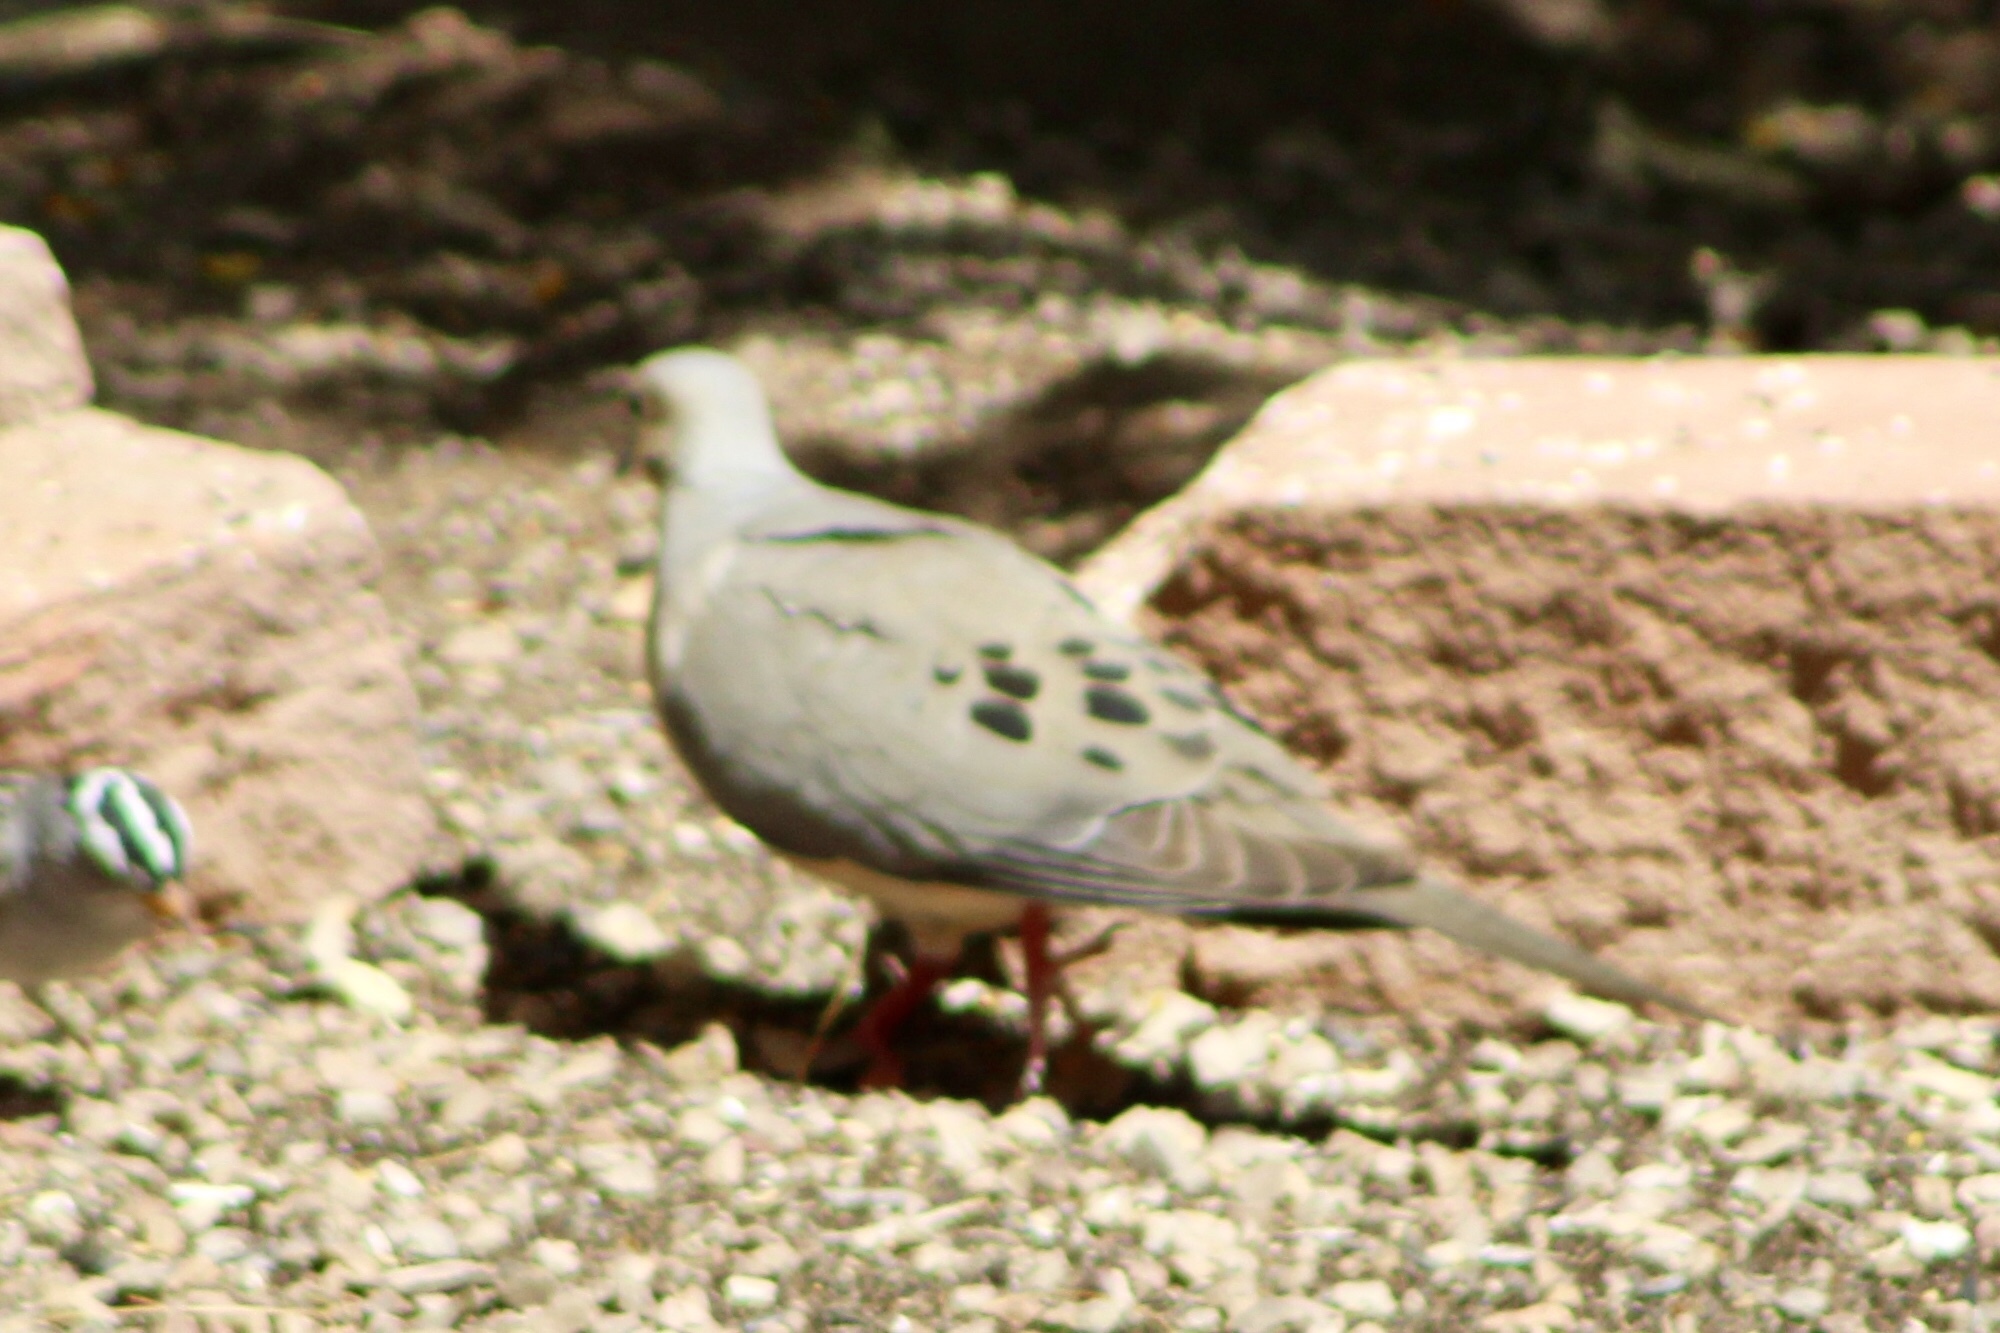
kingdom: Animalia
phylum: Chordata
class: Aves
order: Columbiformes
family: Columbidae
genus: Zenaida
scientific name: Zenaida macroura
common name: Mourning dove
